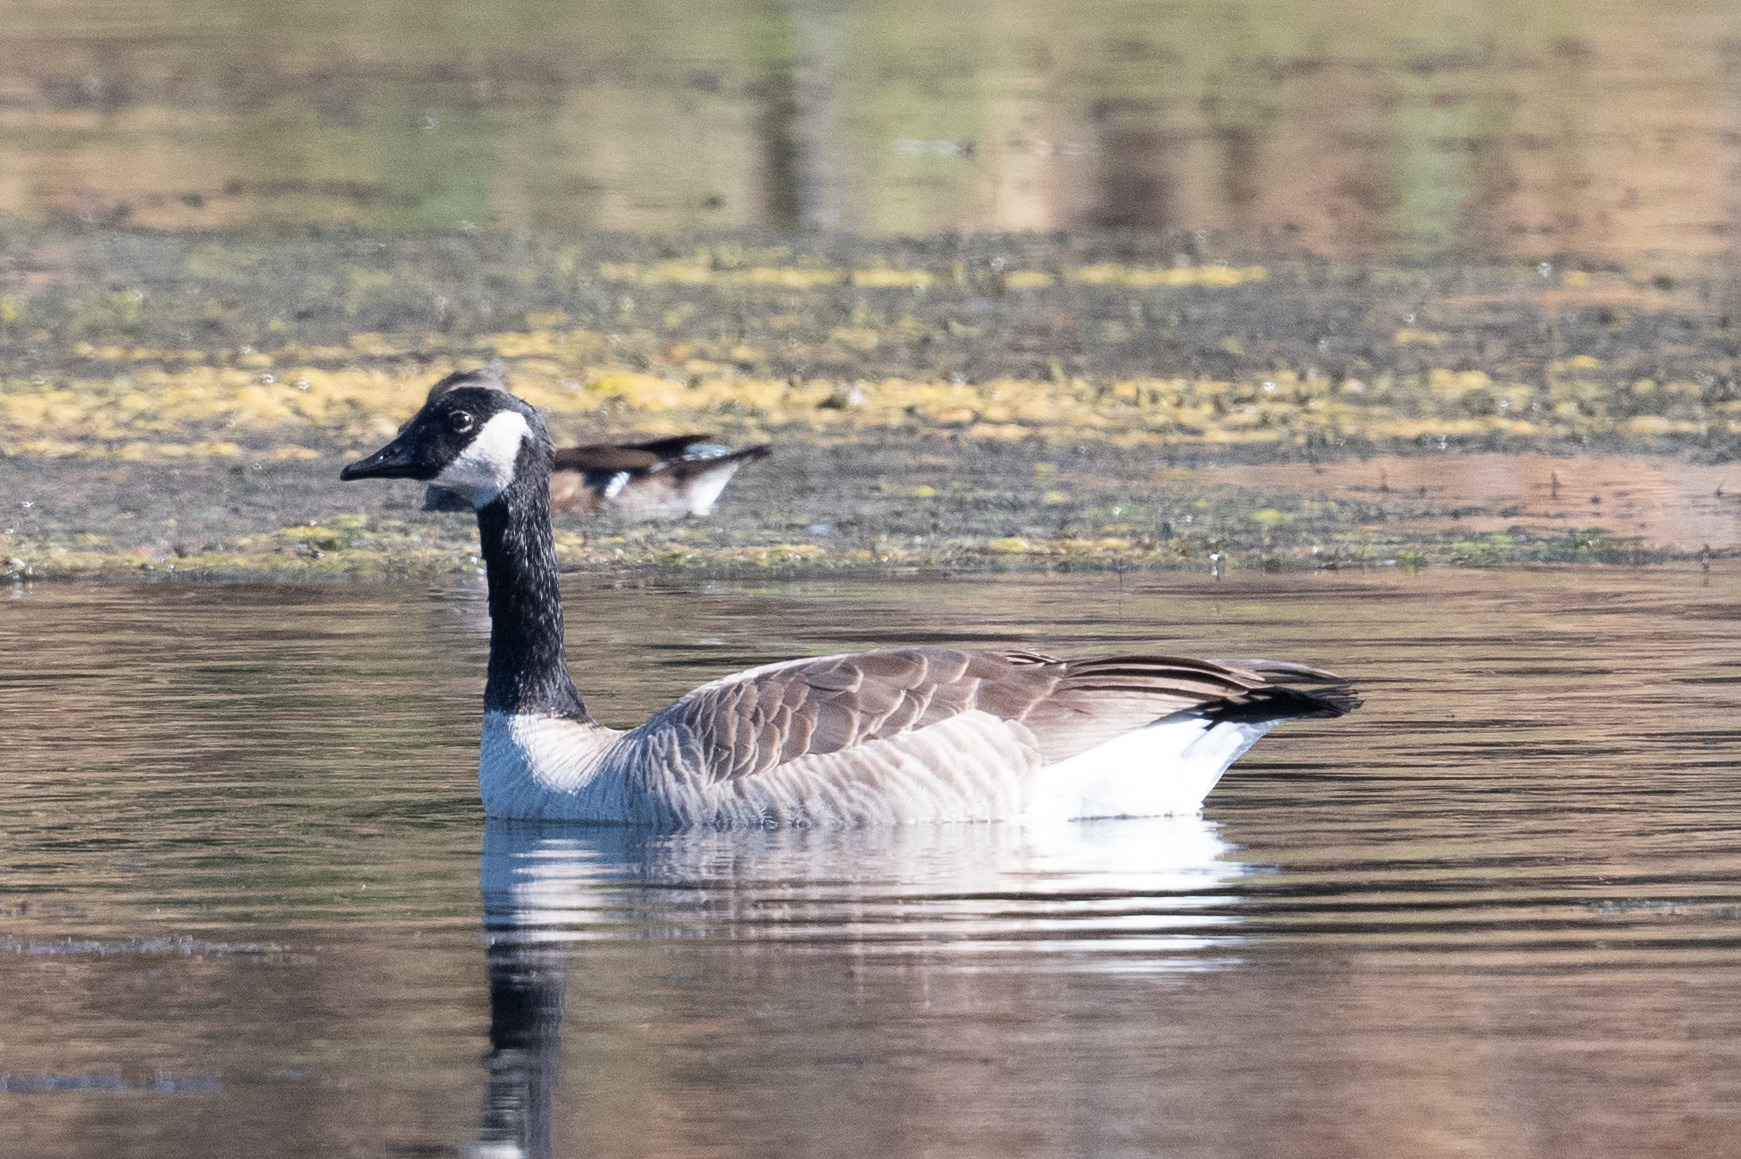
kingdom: Animalia
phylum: Chordata
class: Aves
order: Anseriformes
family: Anatidae
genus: Branta
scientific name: Branta canadensis
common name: Canada goose
